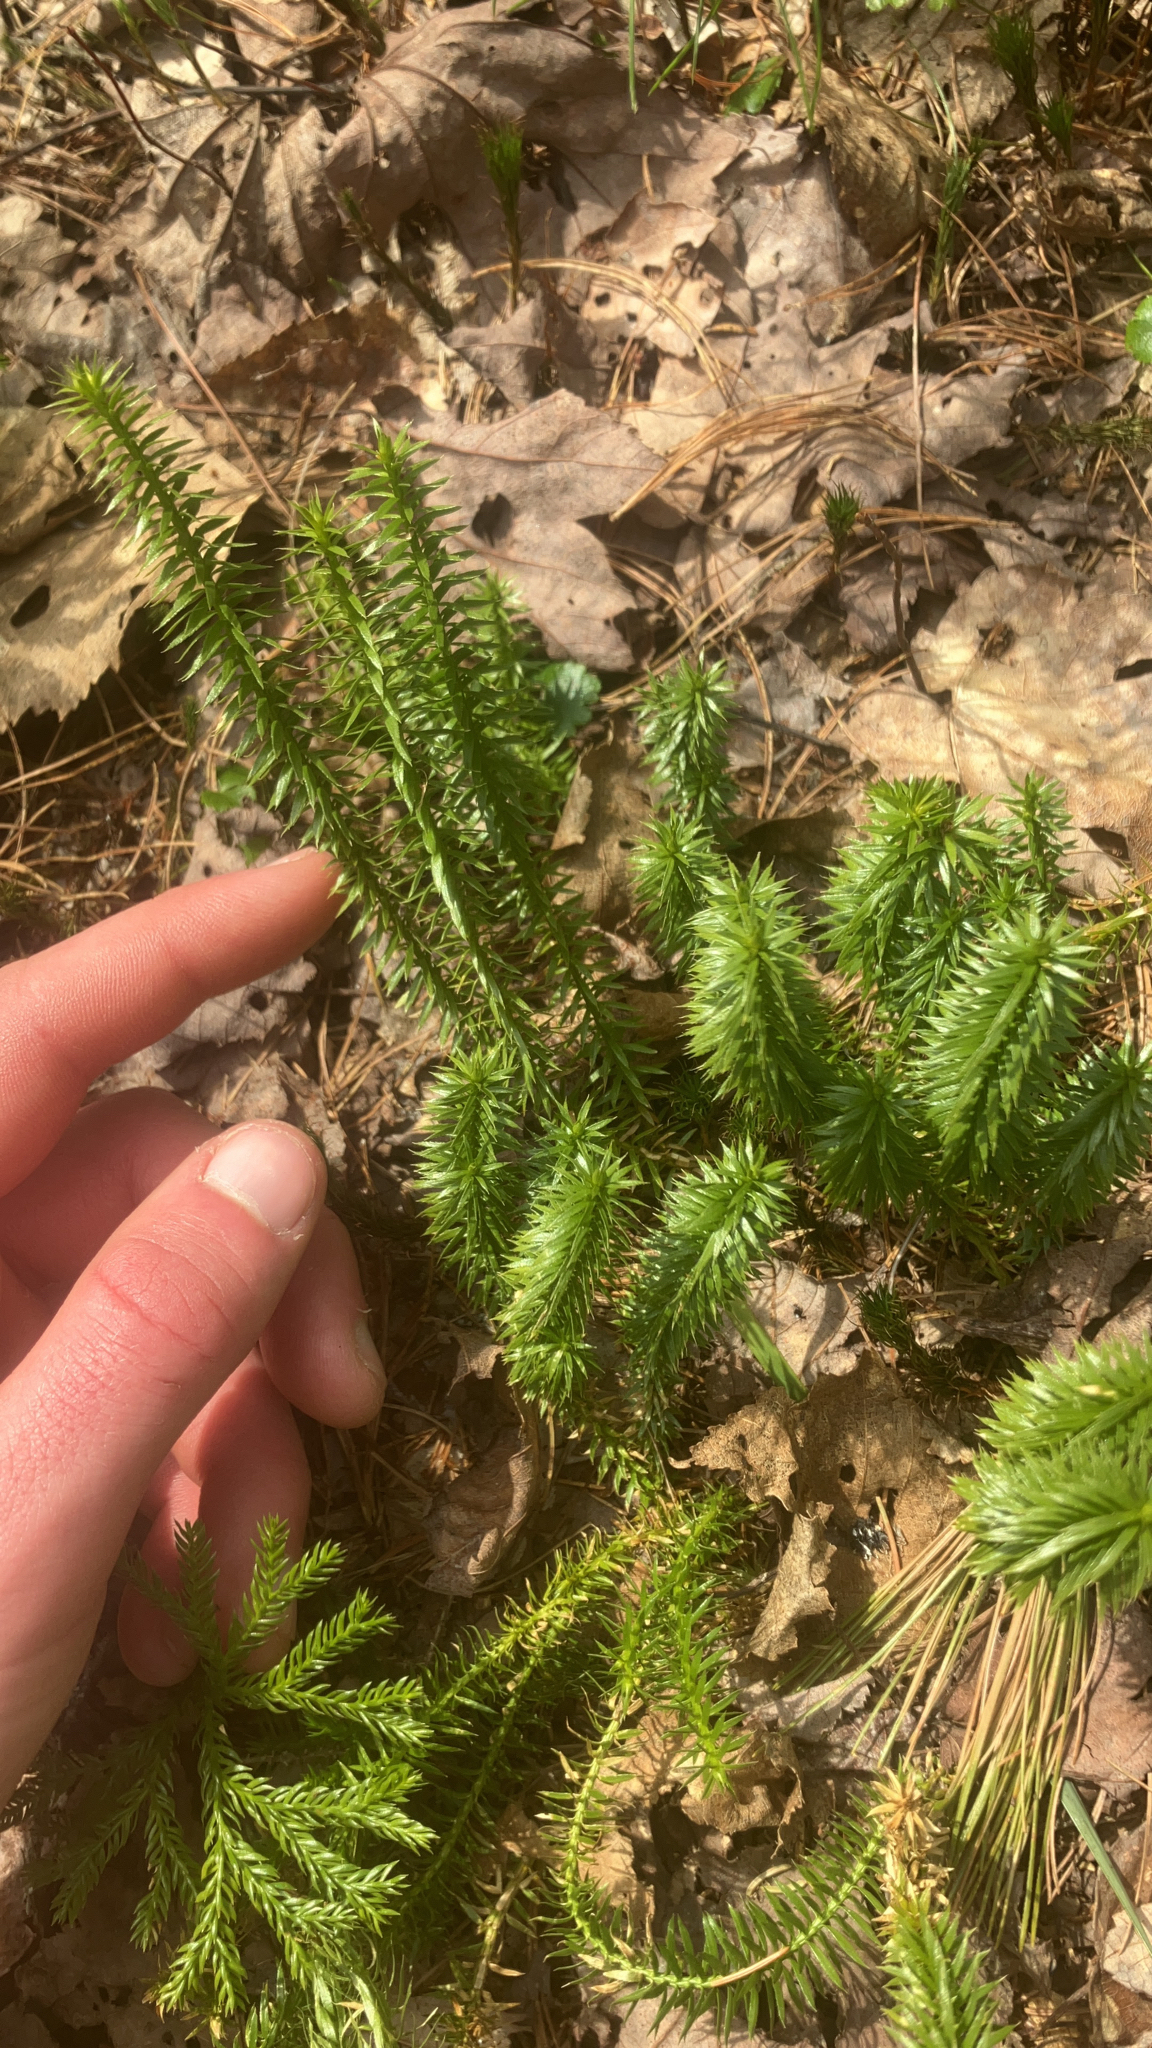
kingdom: Plantae
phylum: Tracheophyta
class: Lycopodiopsida
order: Lycopodiales
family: Lycopodiaceae
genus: Spinulum
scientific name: Spinulum annotinum
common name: Interrupted club-moss
